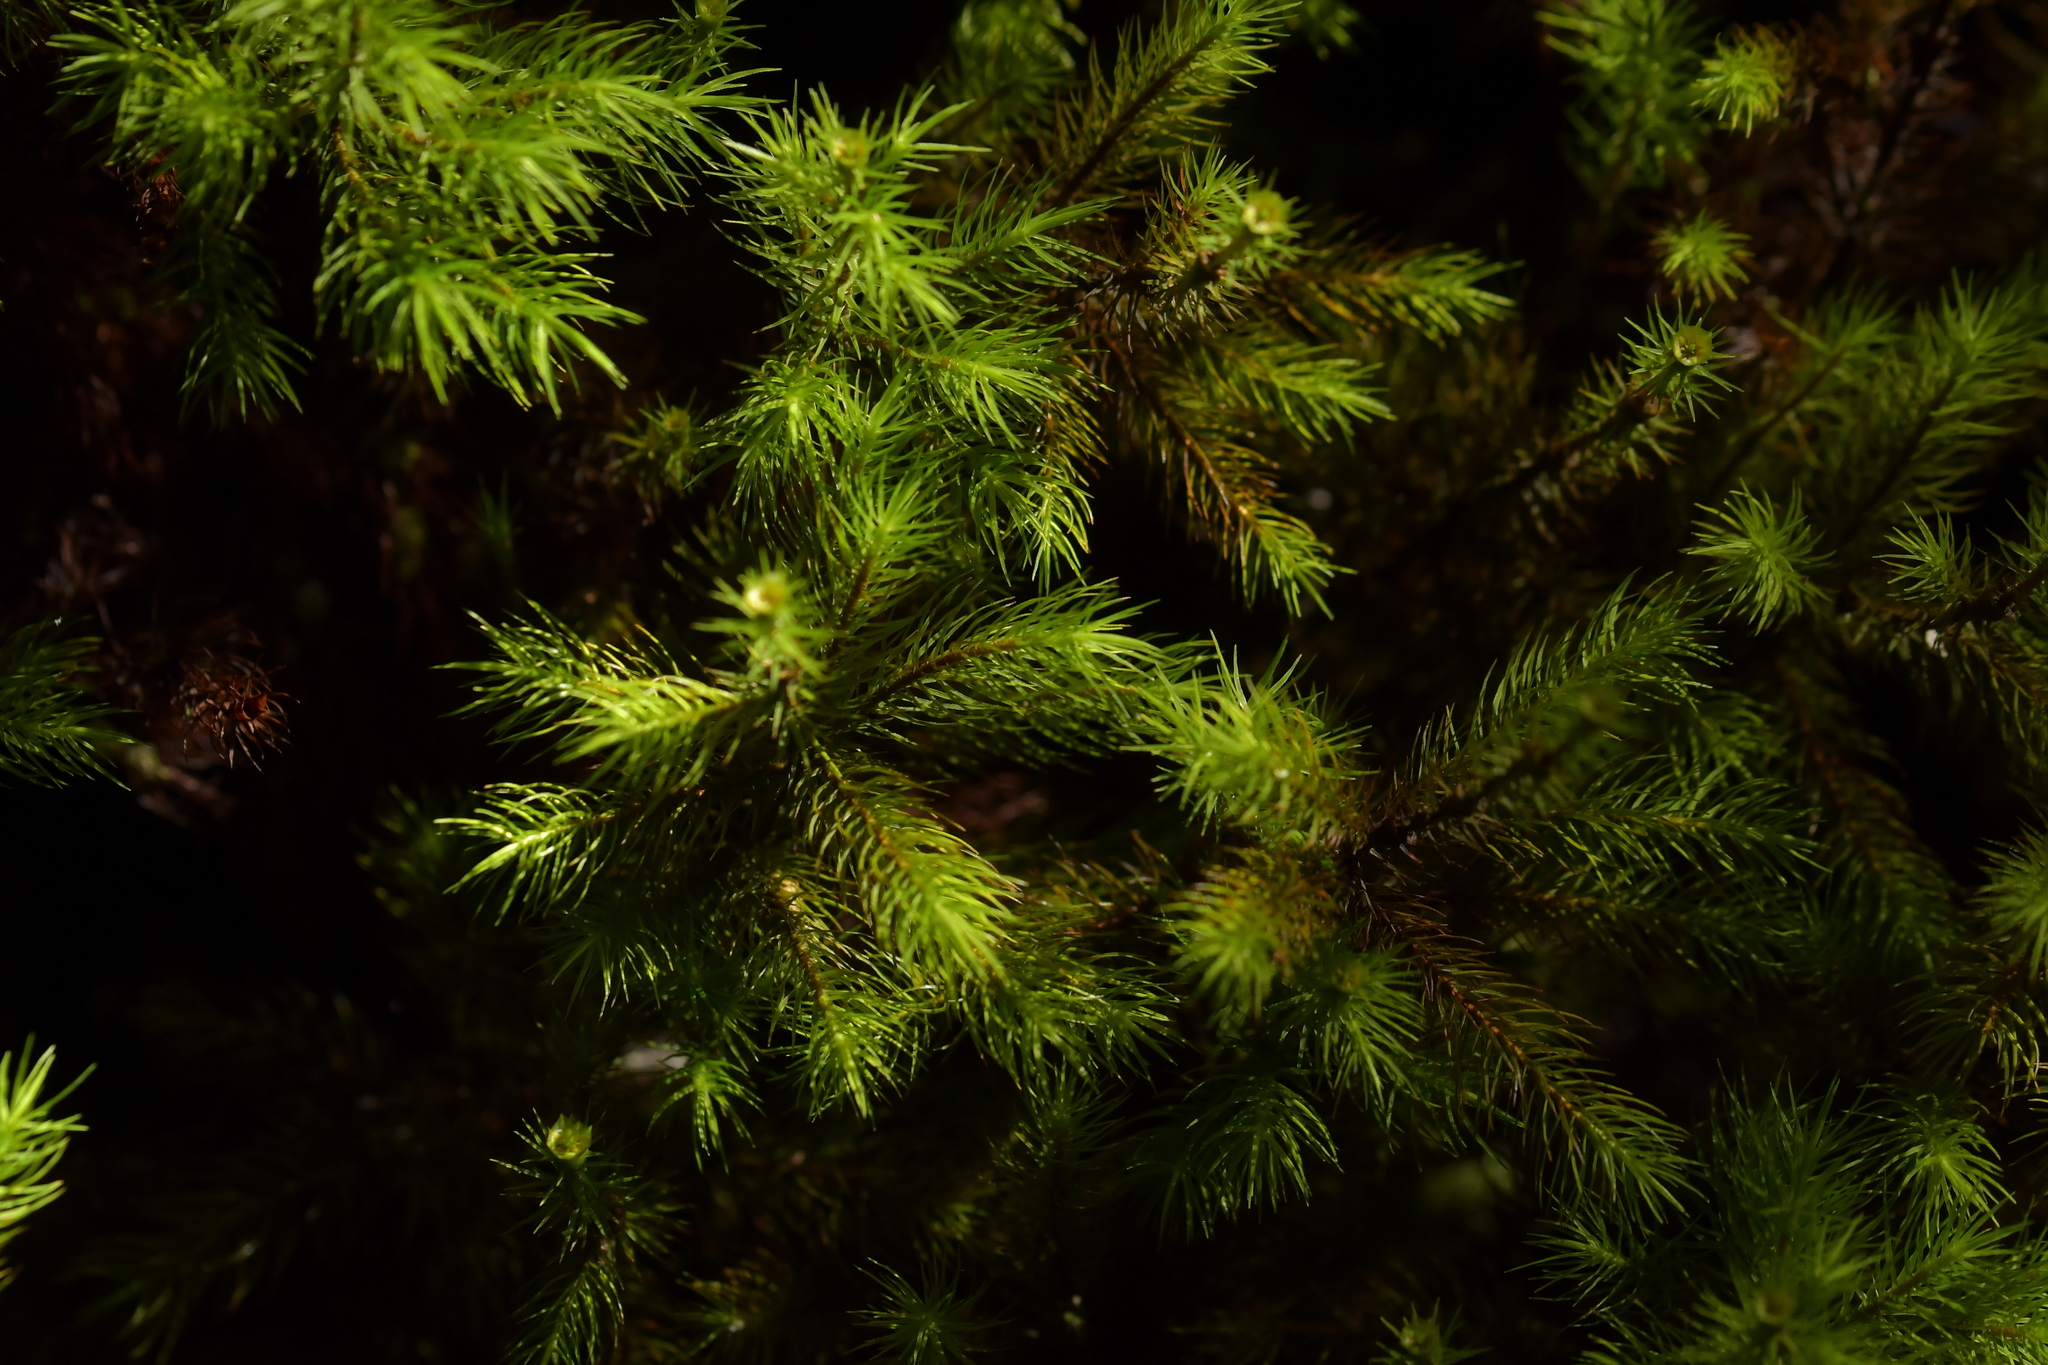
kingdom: Plantae
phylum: Bryophyta
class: Polytrichopsida
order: Polytrichales
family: Polytrichaceae
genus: Dendroligotrichum
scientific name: Dendroligotrichum tongariroense
